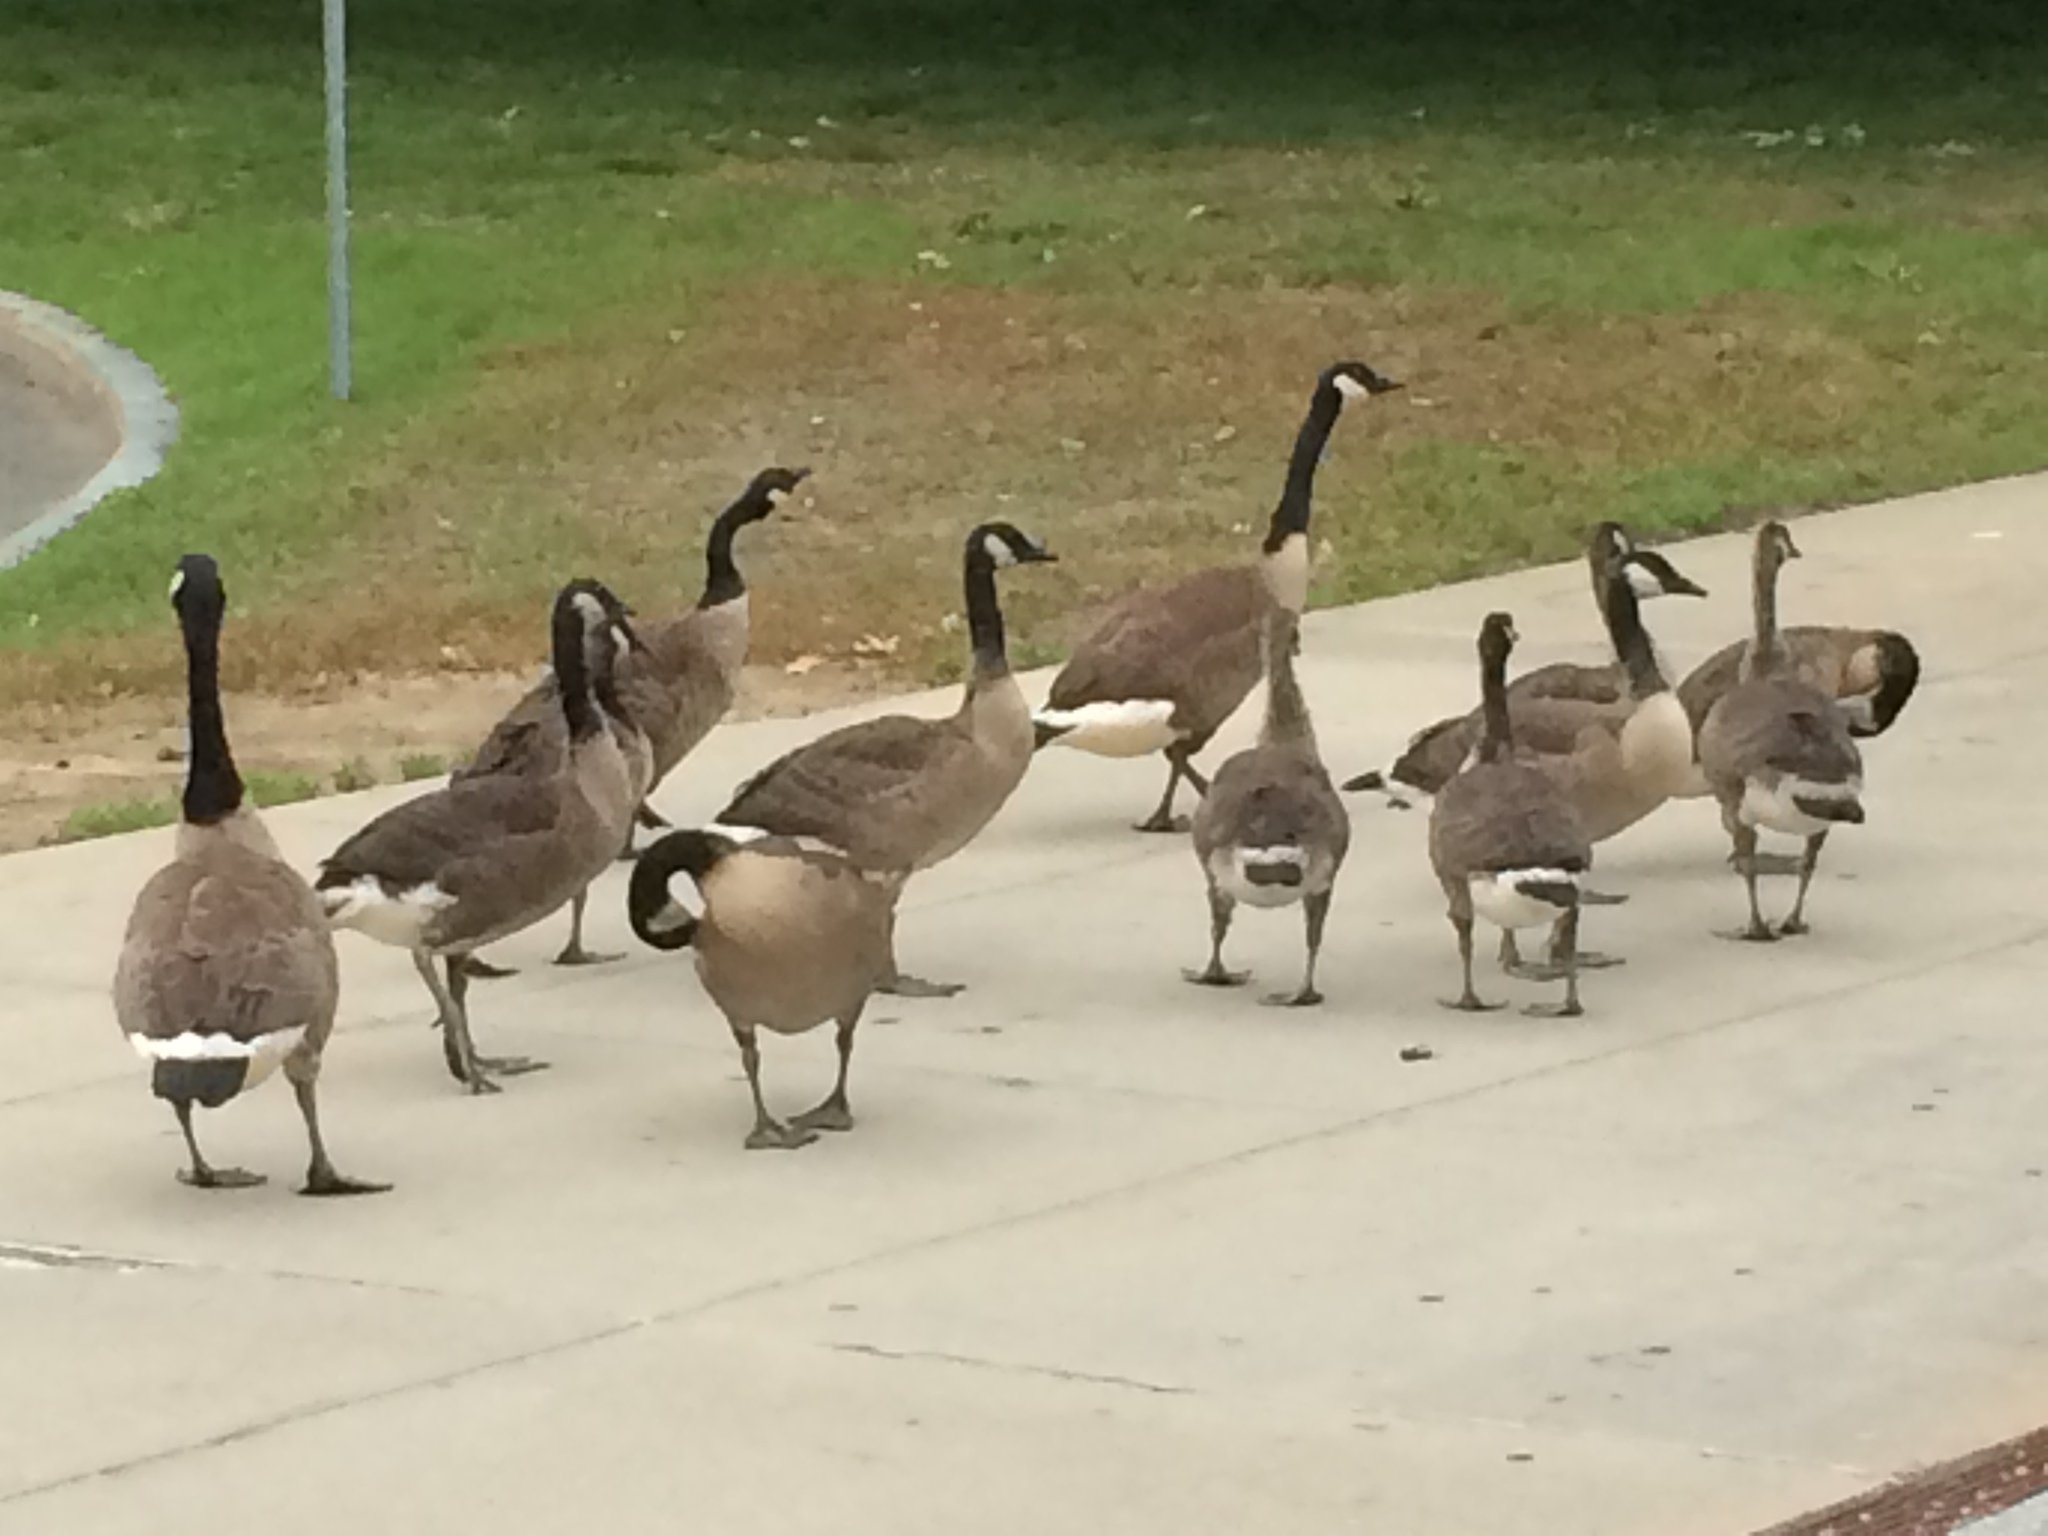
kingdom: Animalia
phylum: Chordata
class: Aves
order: Anseriformes
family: Anatidae
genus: Branta
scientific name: Branta canadensis
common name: Canada goose
